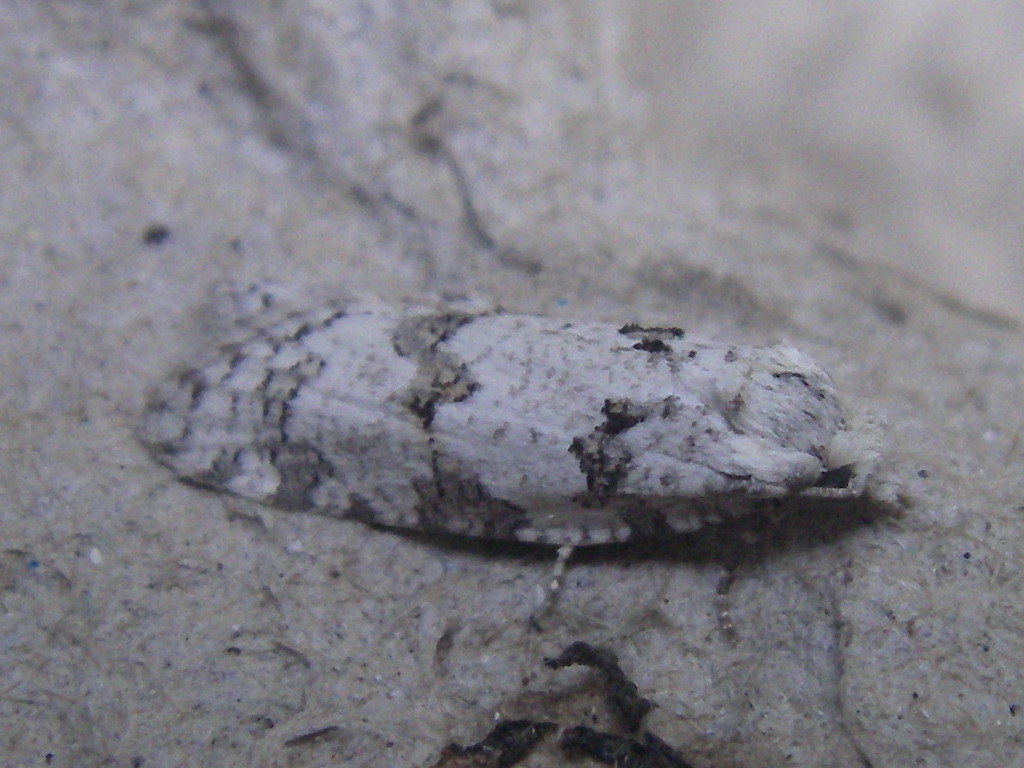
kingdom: Animalia
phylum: Arthropoda
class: Insecta
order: Lepidoptera
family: Tortricidae
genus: Eana
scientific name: Eana penziana
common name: Large mottled shade
